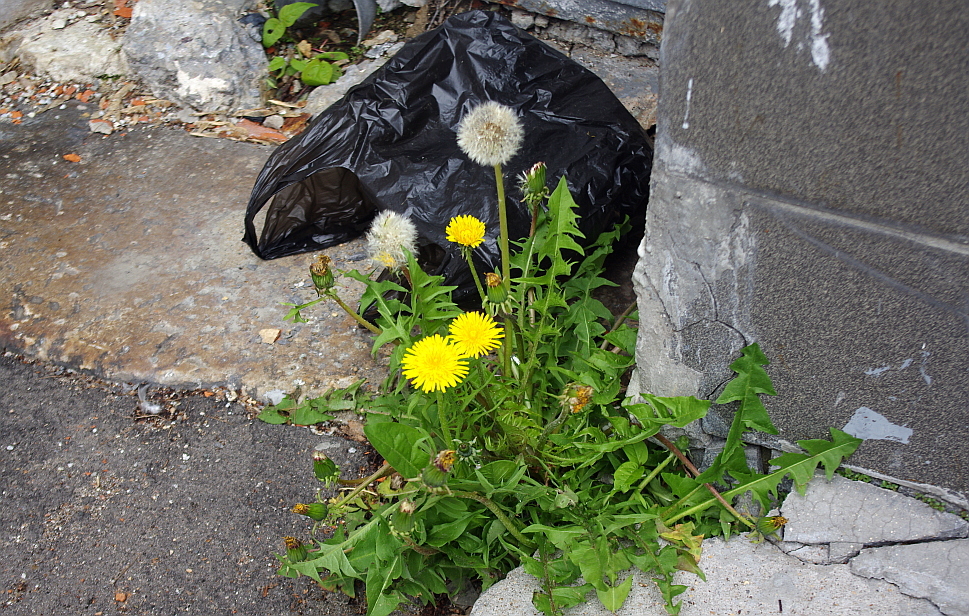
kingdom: Plantae
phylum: Tracheophyta
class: Magnoliopsida
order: Asterales
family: Asteraceae
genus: Taraxacum
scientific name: Taraxacum officinale
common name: Common dandelion
